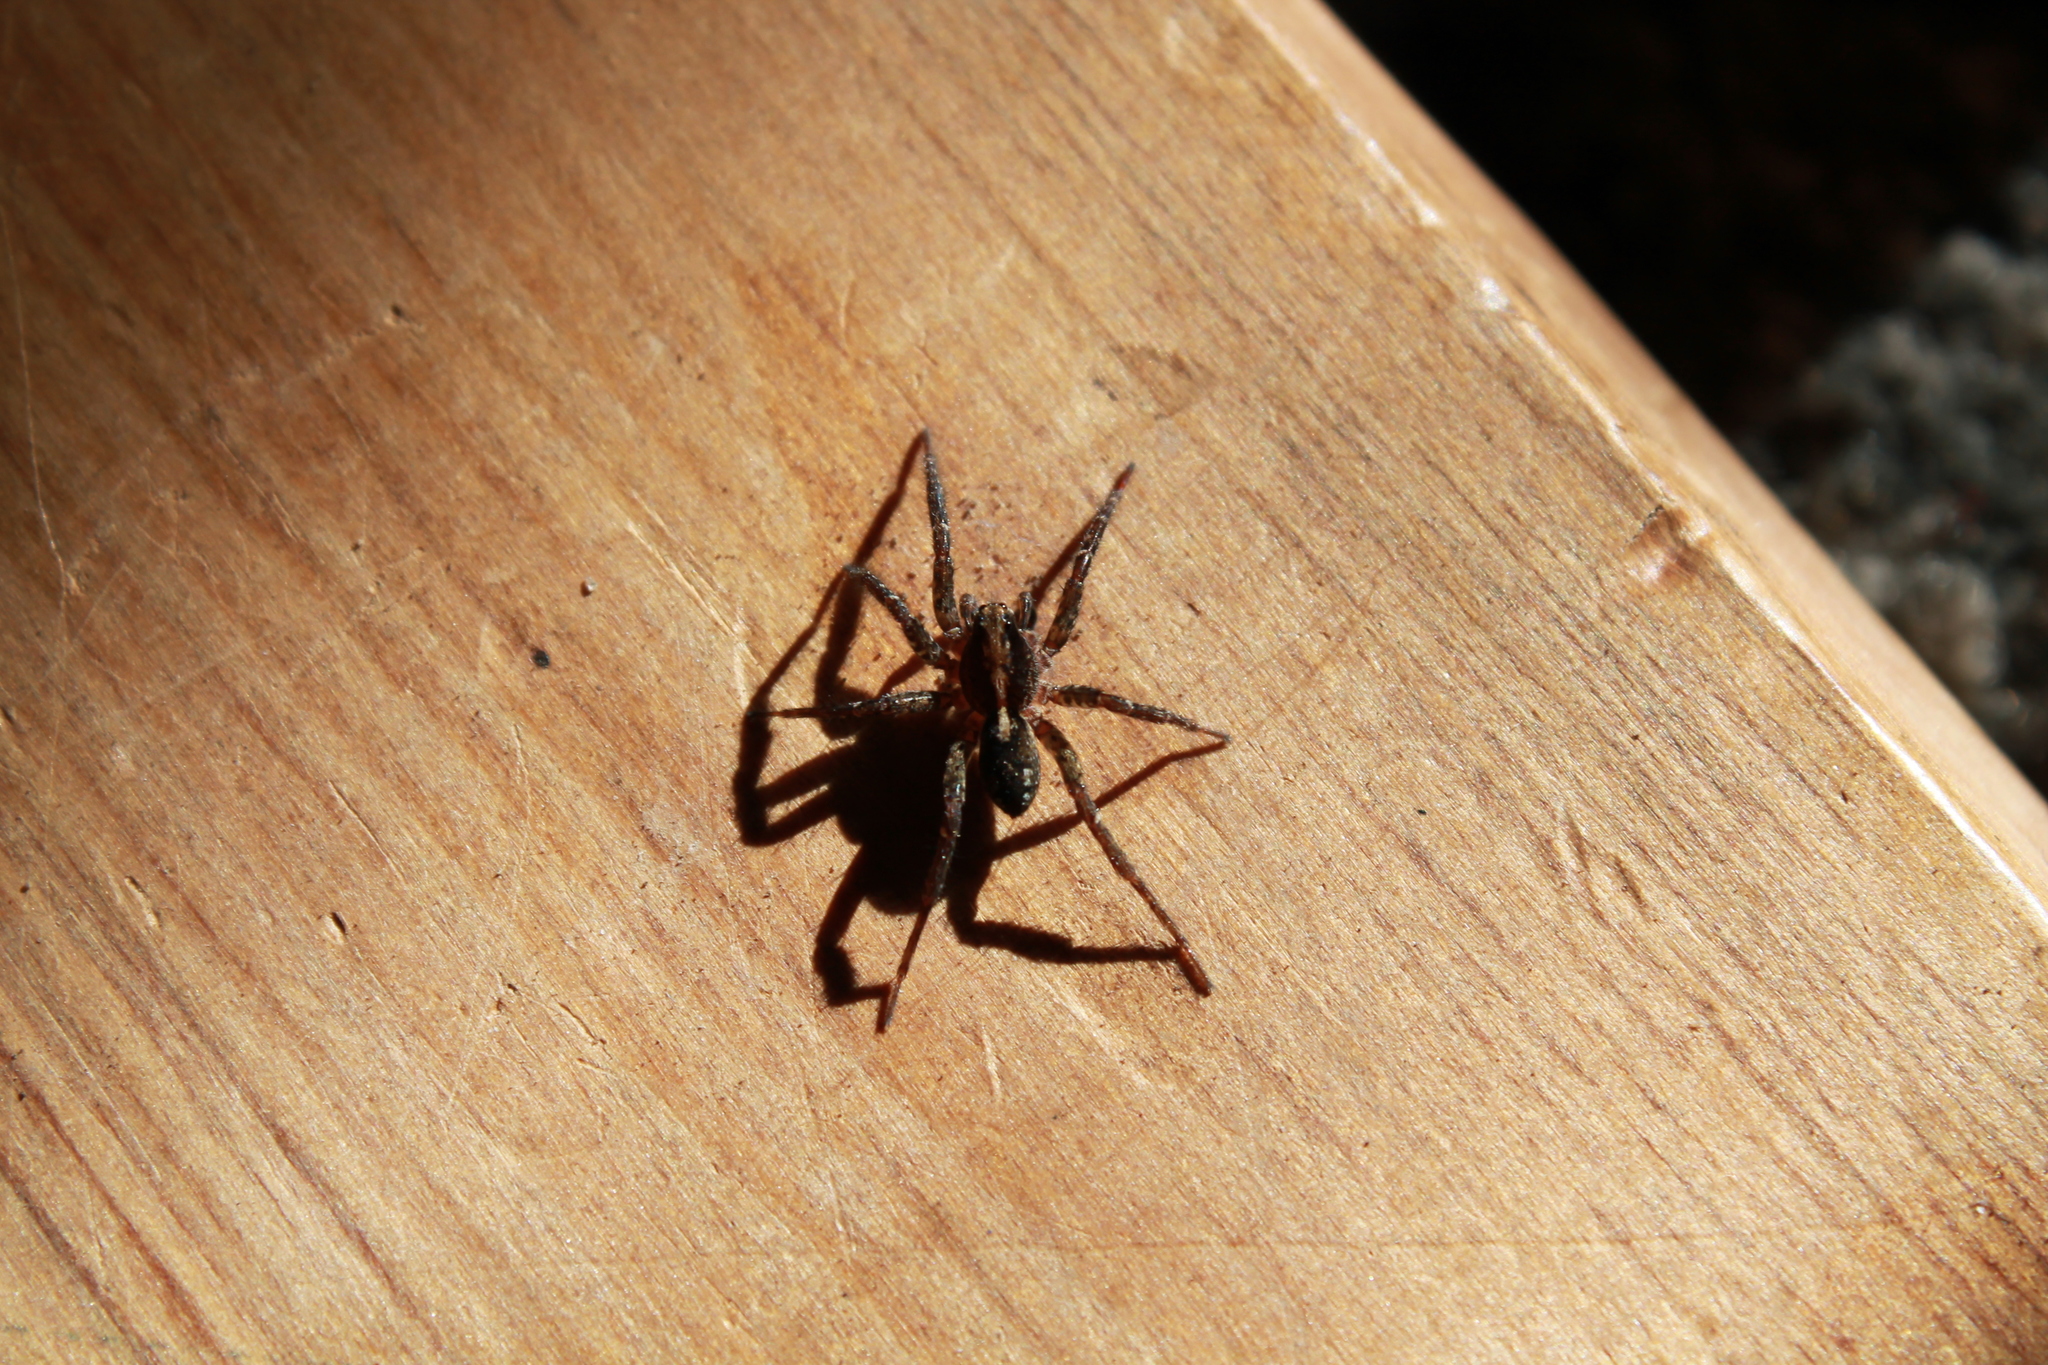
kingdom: Animalia
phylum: Arthropoda
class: Arachnida
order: Araneae
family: Lycosidae
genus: Anoteropsis
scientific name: Anoteropsis hilaris
